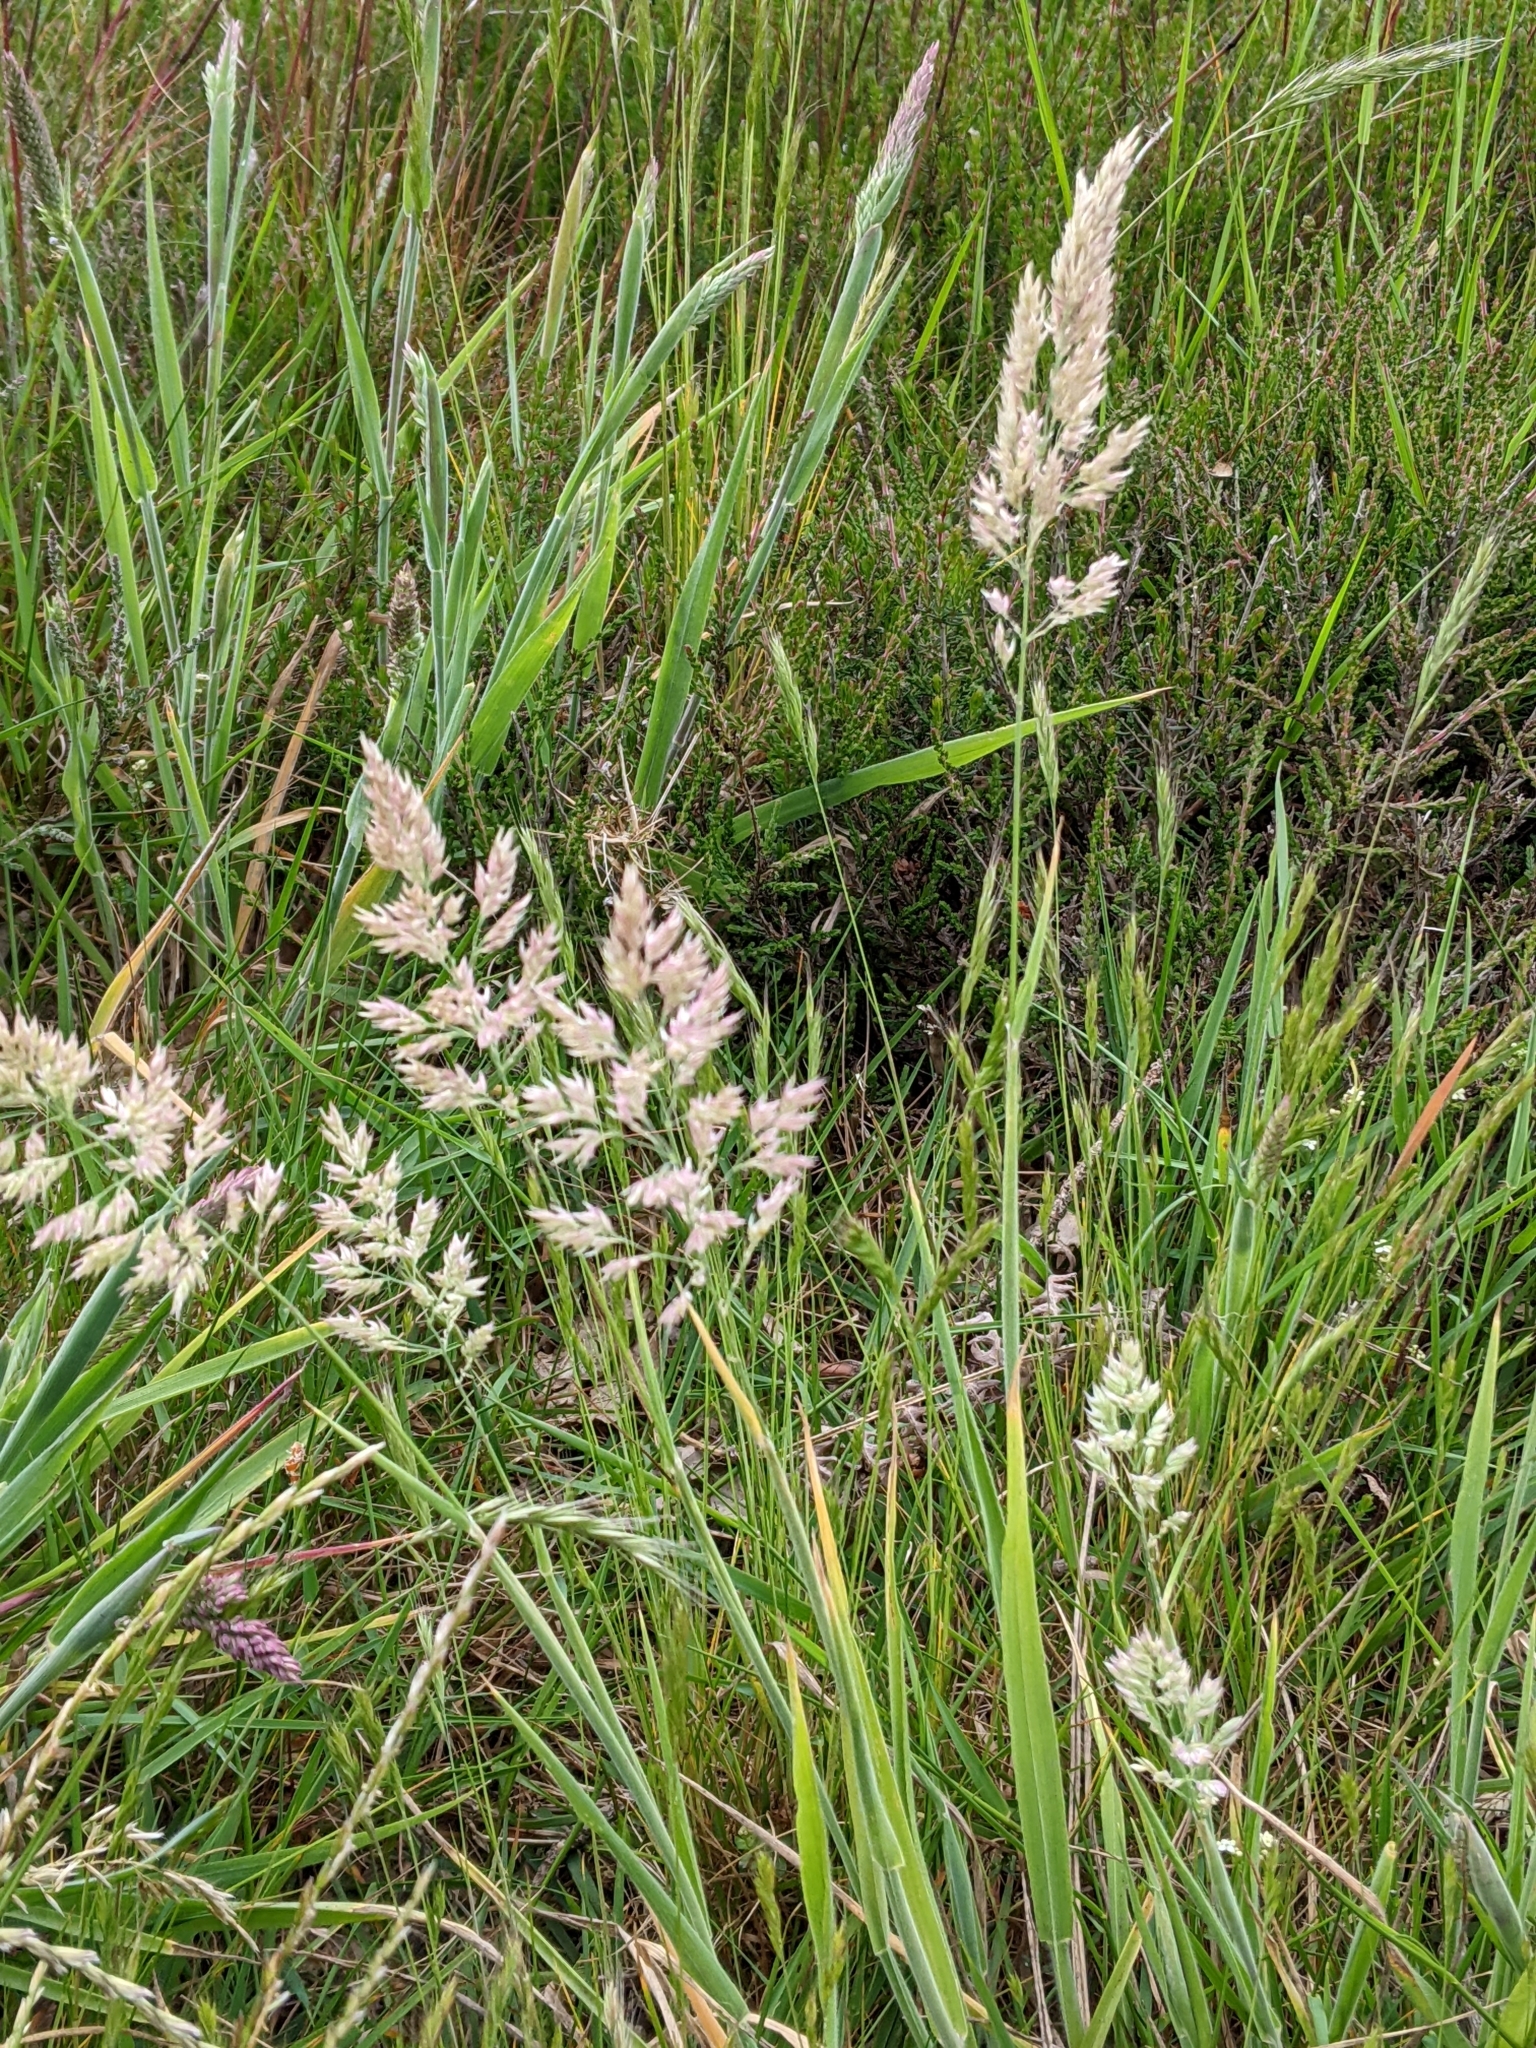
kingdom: Plantae
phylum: Tracheophyta
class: Liliopsida
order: Poales
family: Poaceae
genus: Holcus
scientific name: Holcus lanatus
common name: Yorkshire-fog
